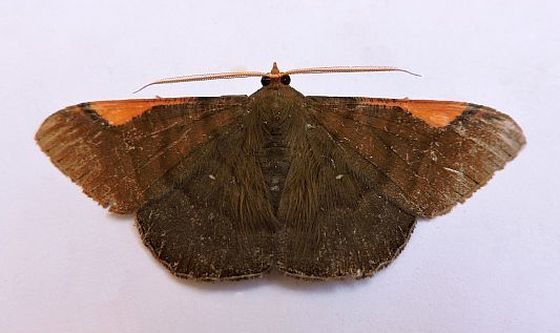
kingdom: Animalia
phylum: Arthropoda
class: Insecta
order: Lepidoptera
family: Geometridae
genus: Sphacelodes
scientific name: Sphacelodes vulneraria
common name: Looper moth
